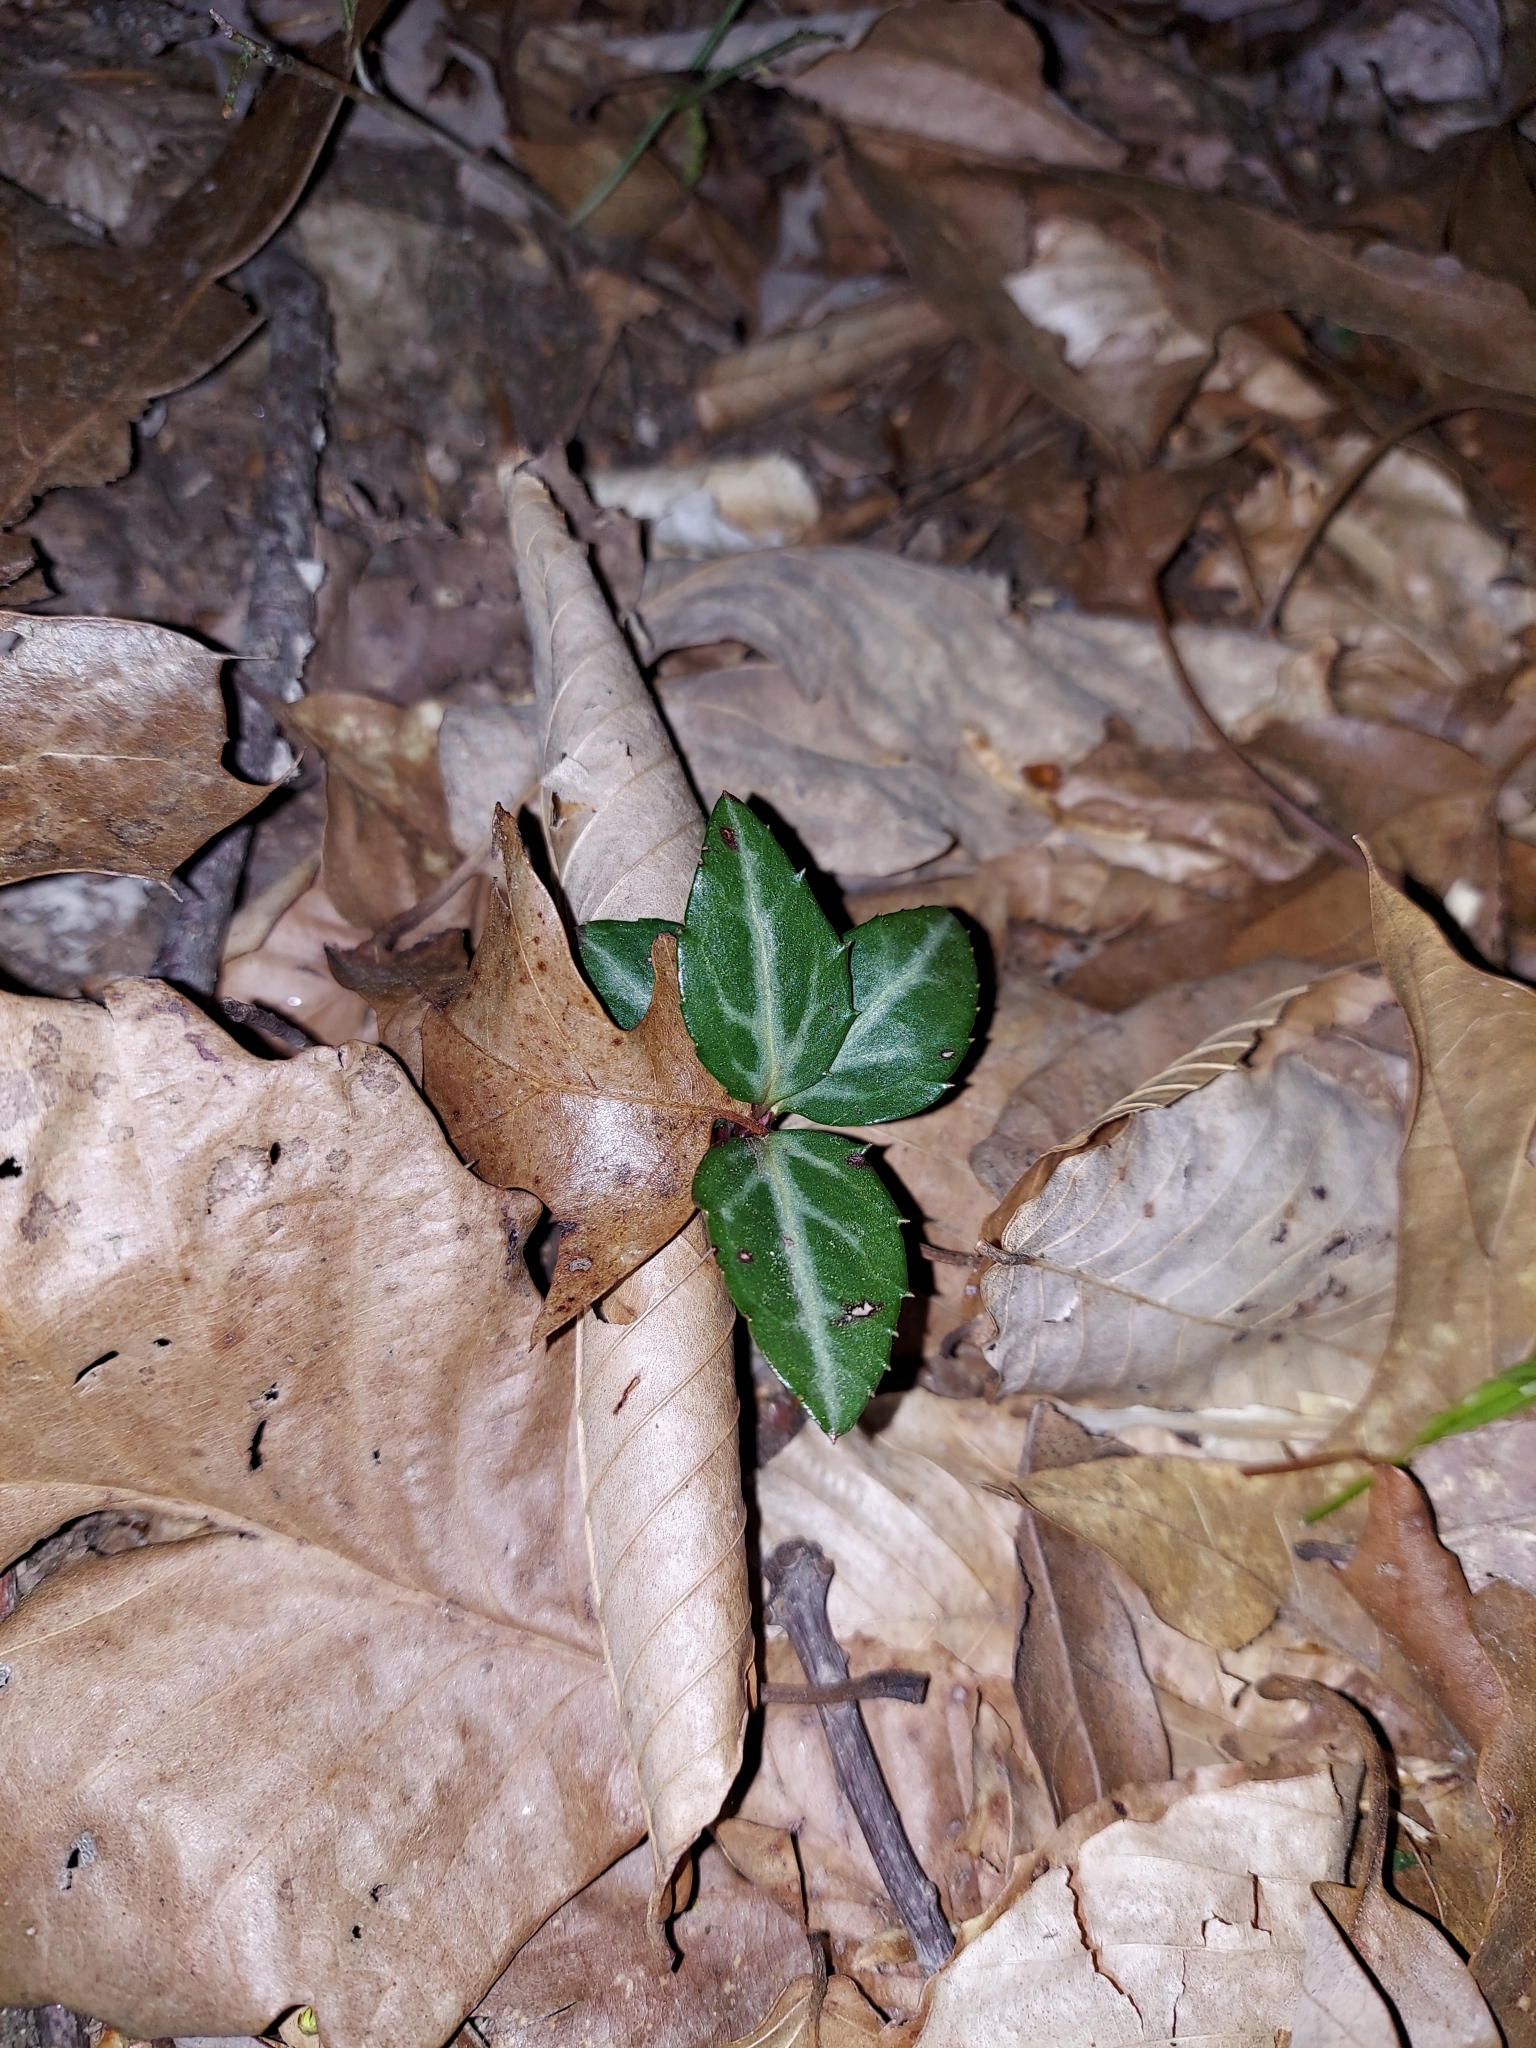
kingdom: Plantae
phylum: Tracheophyta
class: Magnoliopsida
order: Ericales
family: Ericaceae
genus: Chimaphila
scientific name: Chimaphila maculata
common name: Spotted pipsissewa
